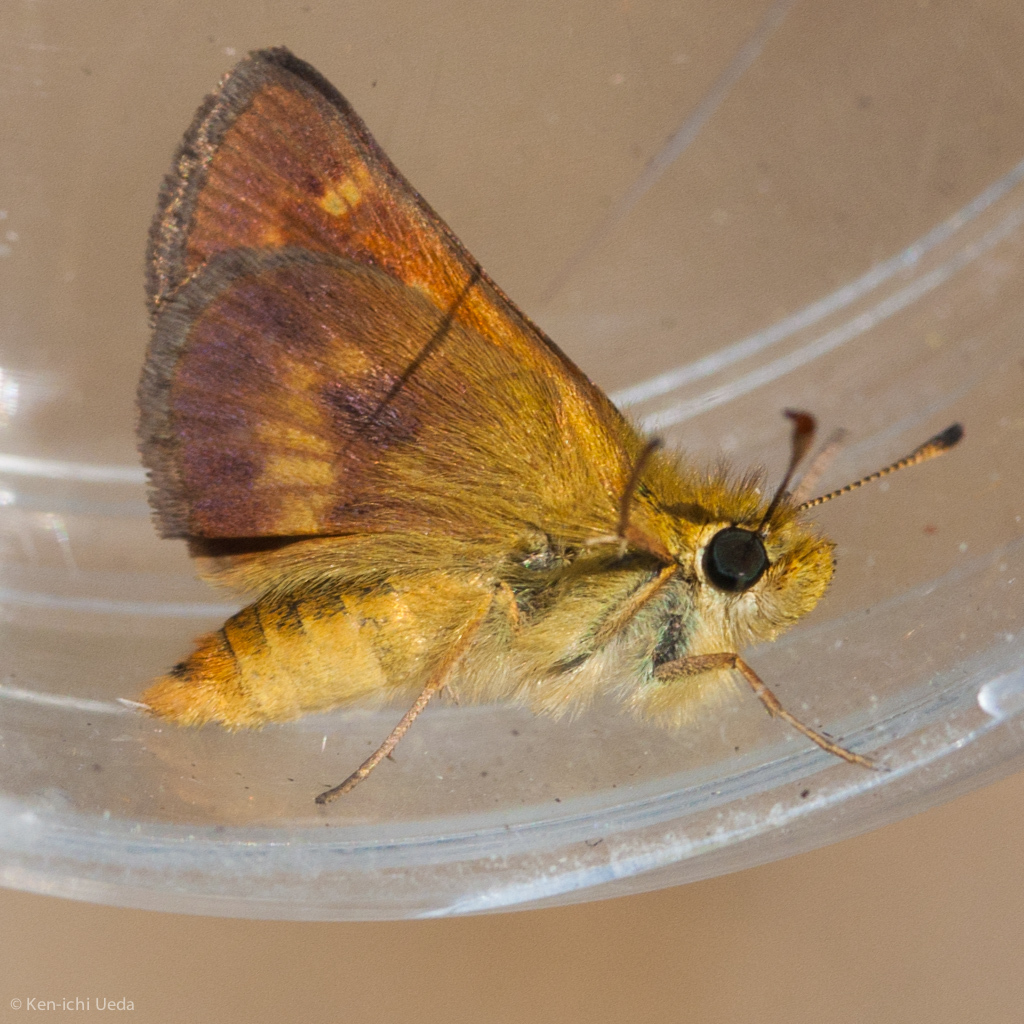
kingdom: Animalia
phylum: Arthropoda
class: Insecta
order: Lepidoptera
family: Hesperiidae
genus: Ochlodes
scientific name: Ochlodes agricola
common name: Rural skipper
